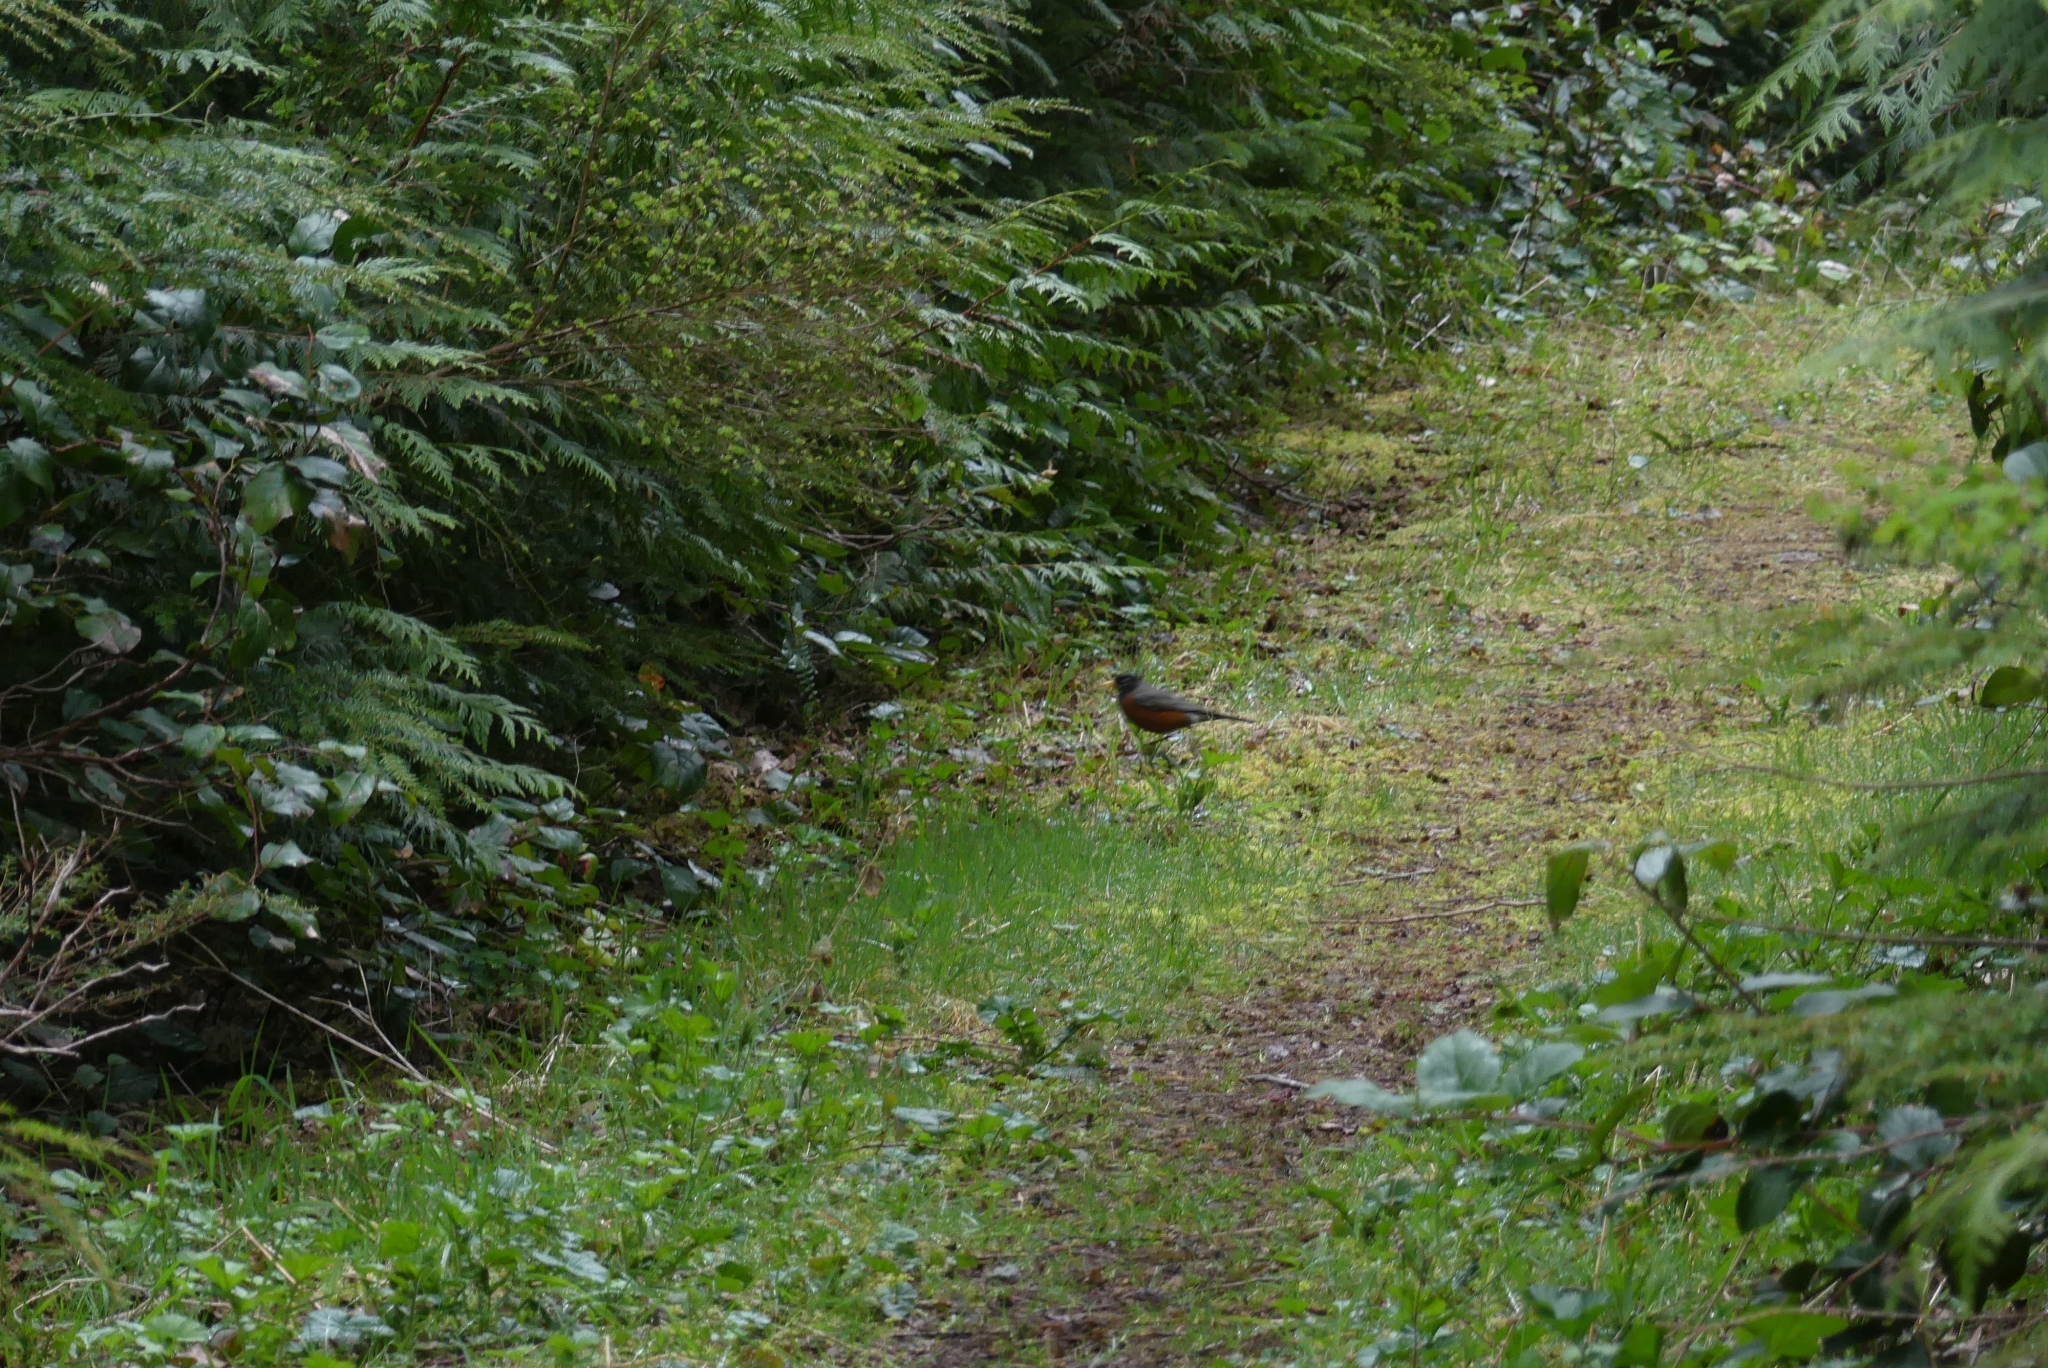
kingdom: Animalia
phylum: Chordata
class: Aves
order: Passeriformes
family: Turdidae
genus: Turdus
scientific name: Turdus migratorius
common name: American robin
